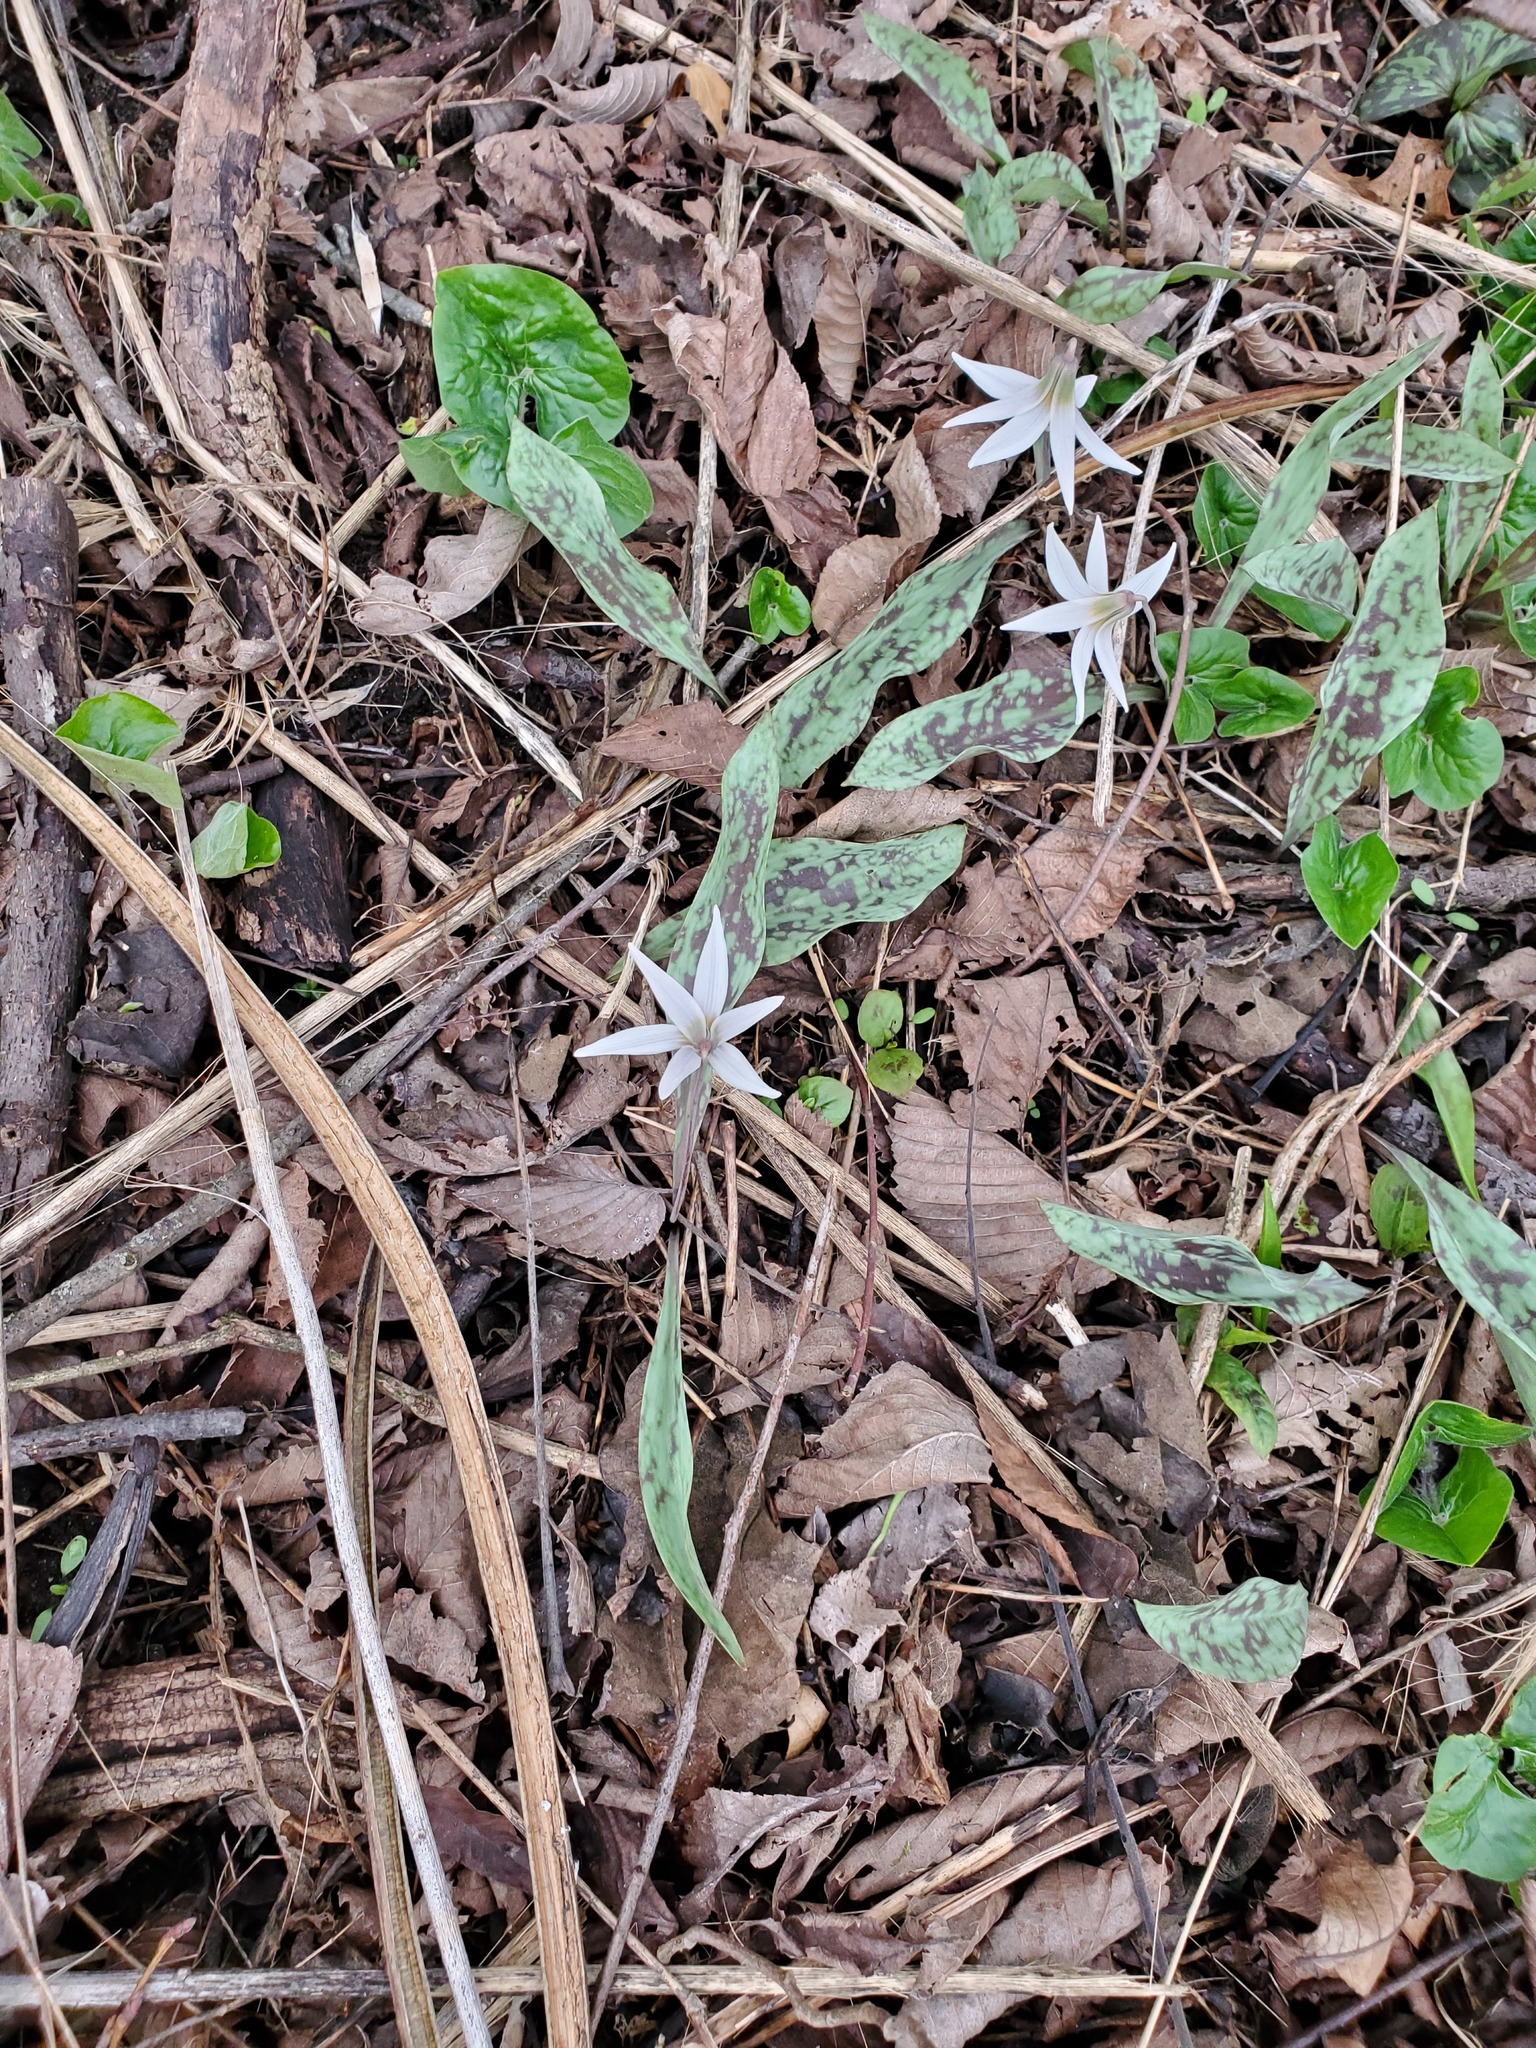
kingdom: Plantae
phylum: Tracheophyta
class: Liliopsida
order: Liliales
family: Liliaceae
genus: Erythronium
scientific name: Erythronium albidum
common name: White trout-lily
